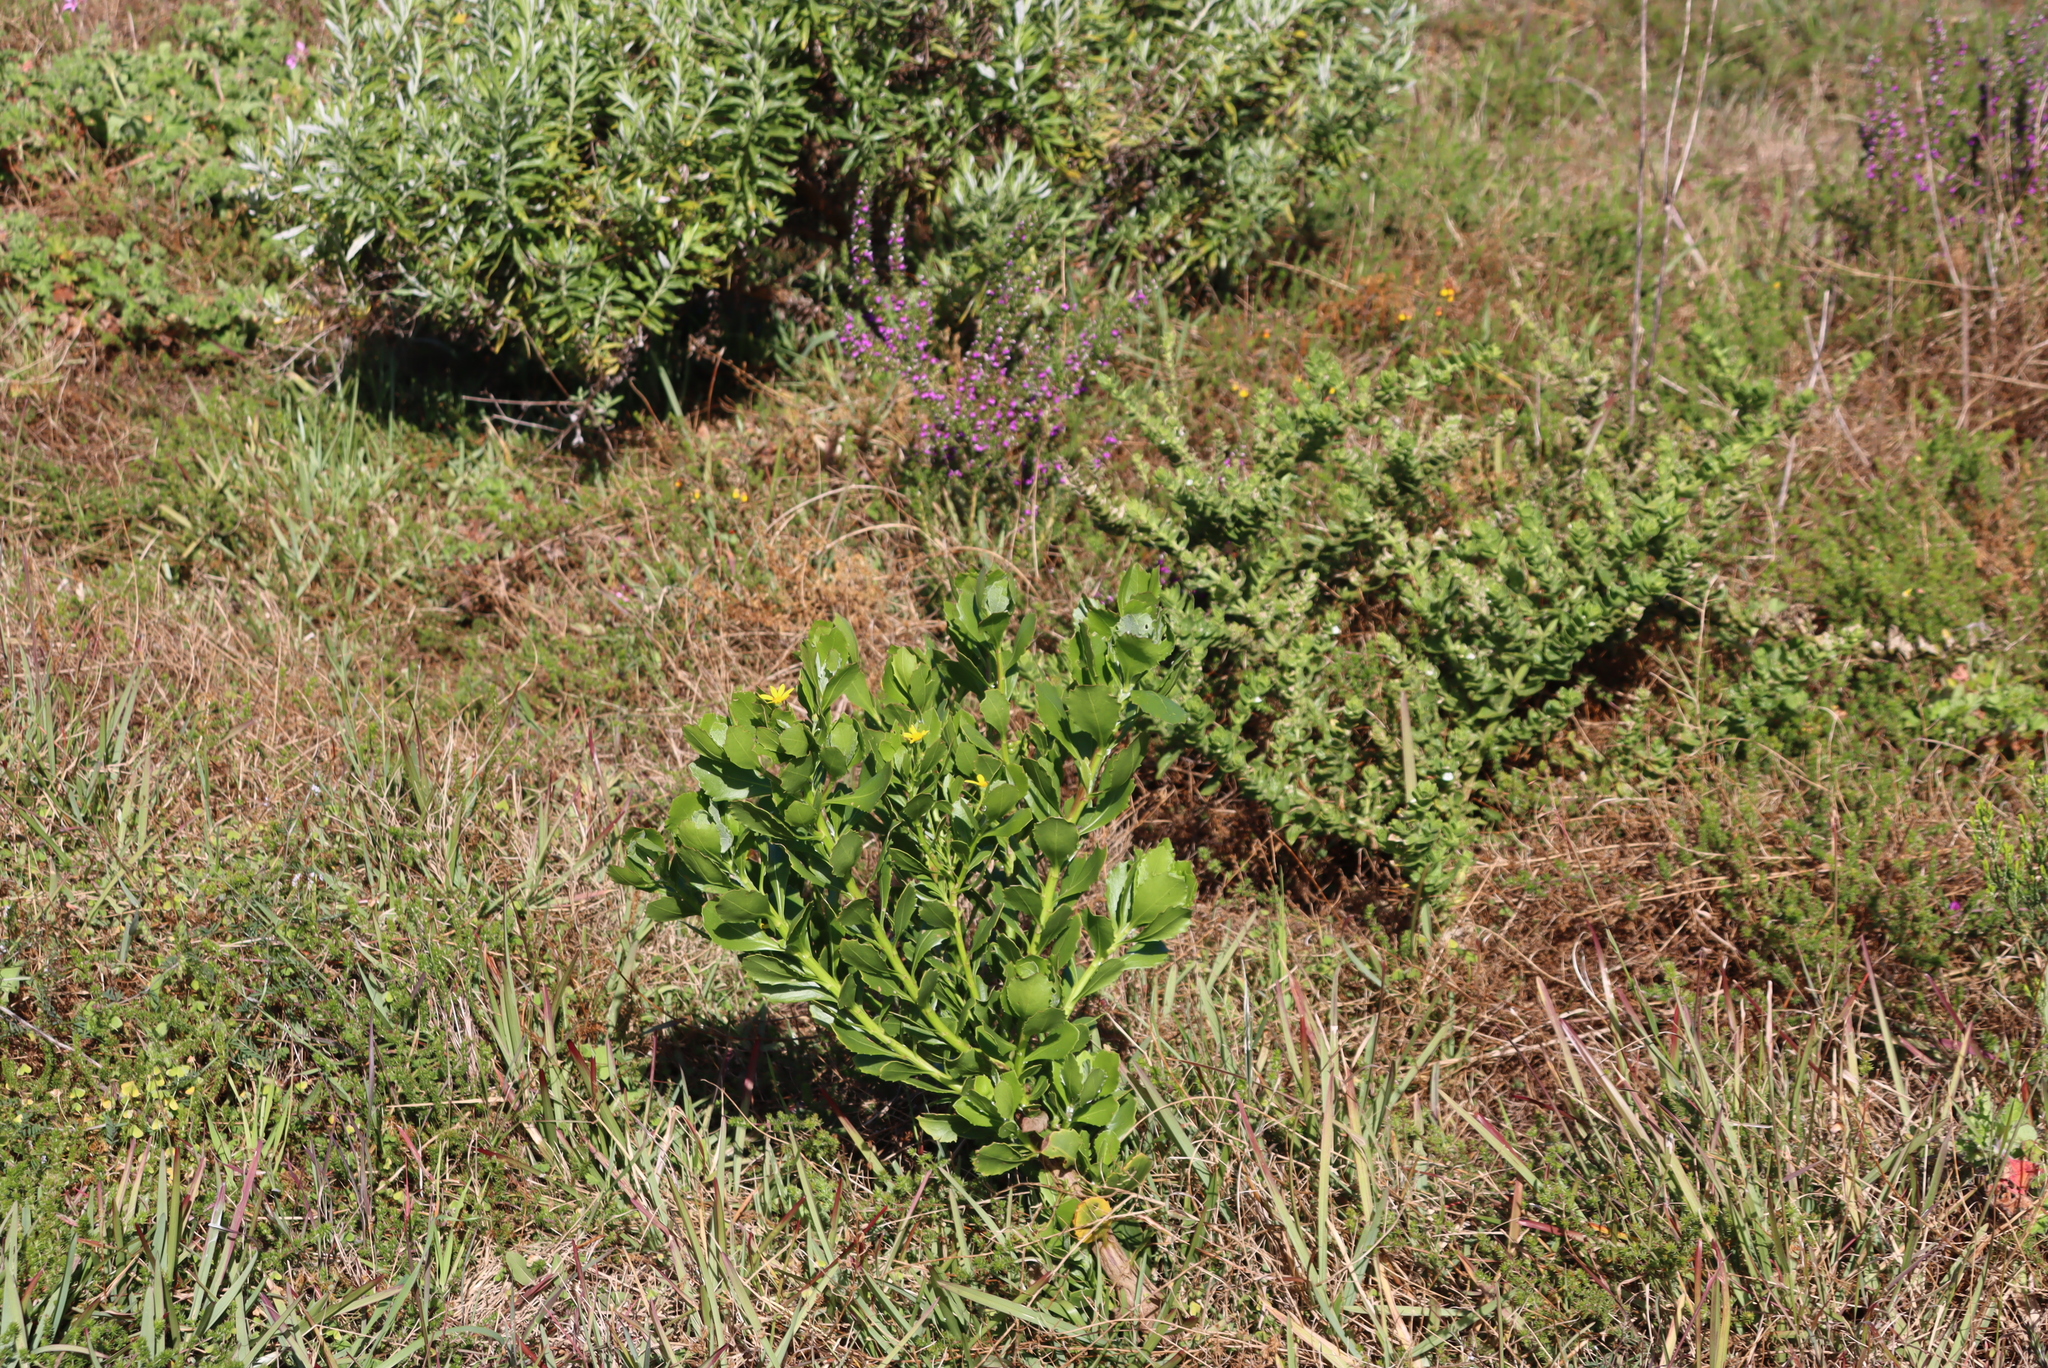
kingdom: Plantae
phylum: Tracheophyta
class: Magnoliopsida
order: Asterales
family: Asteraceae
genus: Osteospermum
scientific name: Osteospermum moniliferum
